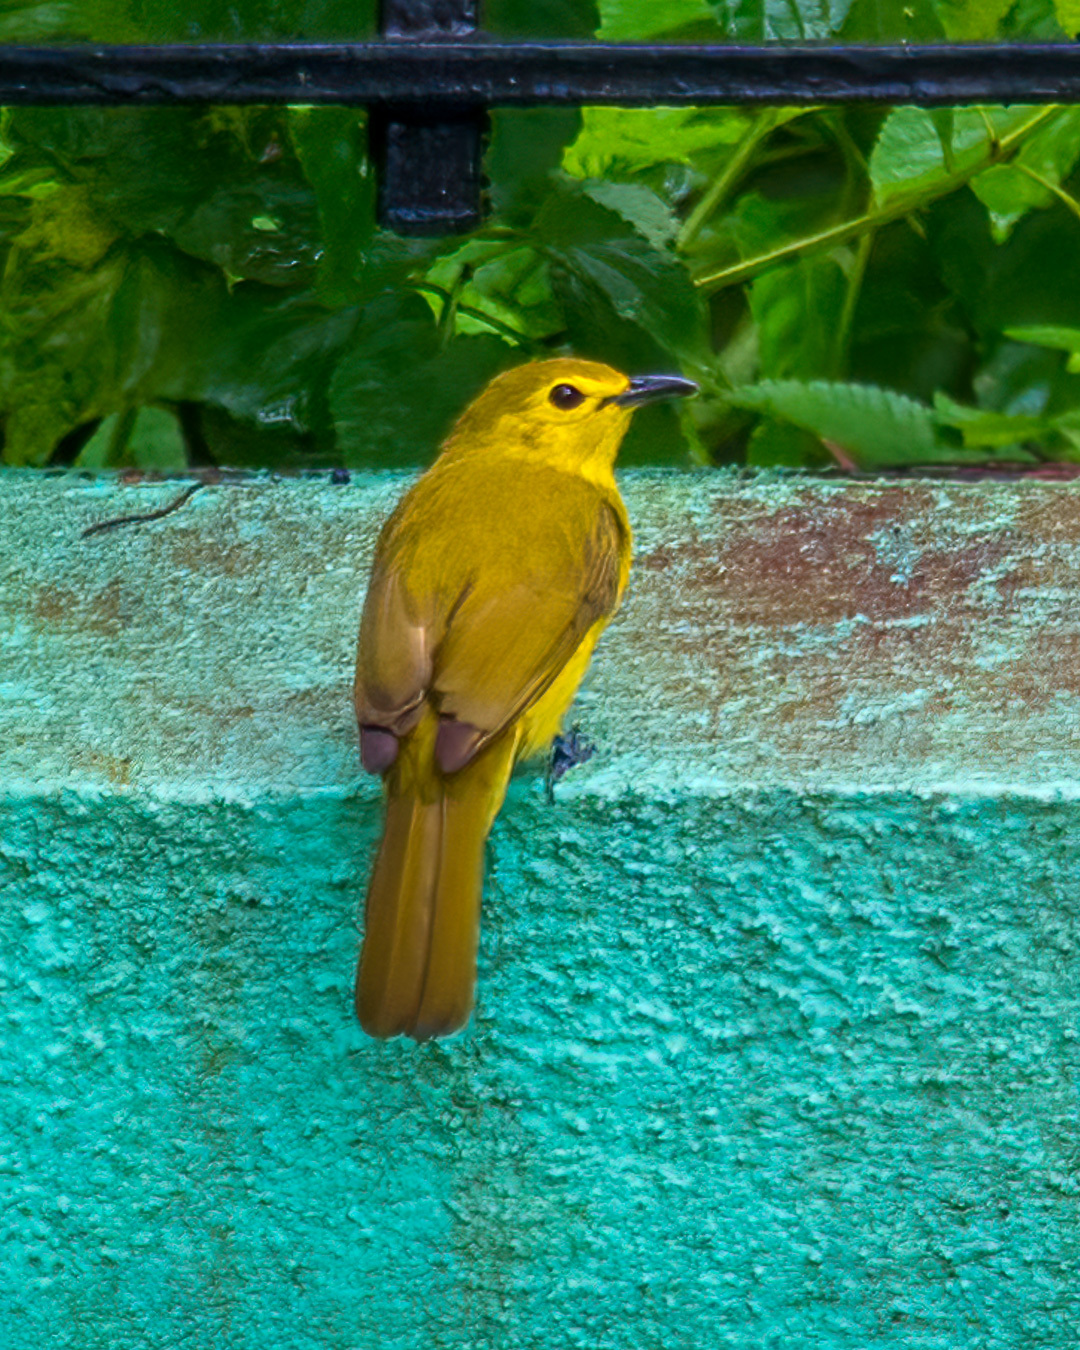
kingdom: Animalia
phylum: Chordata
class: Aves
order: Passeriformes
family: Pycnonotidae
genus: Acritillas
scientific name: Acritillas indica
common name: Yellow-browed bulbul
